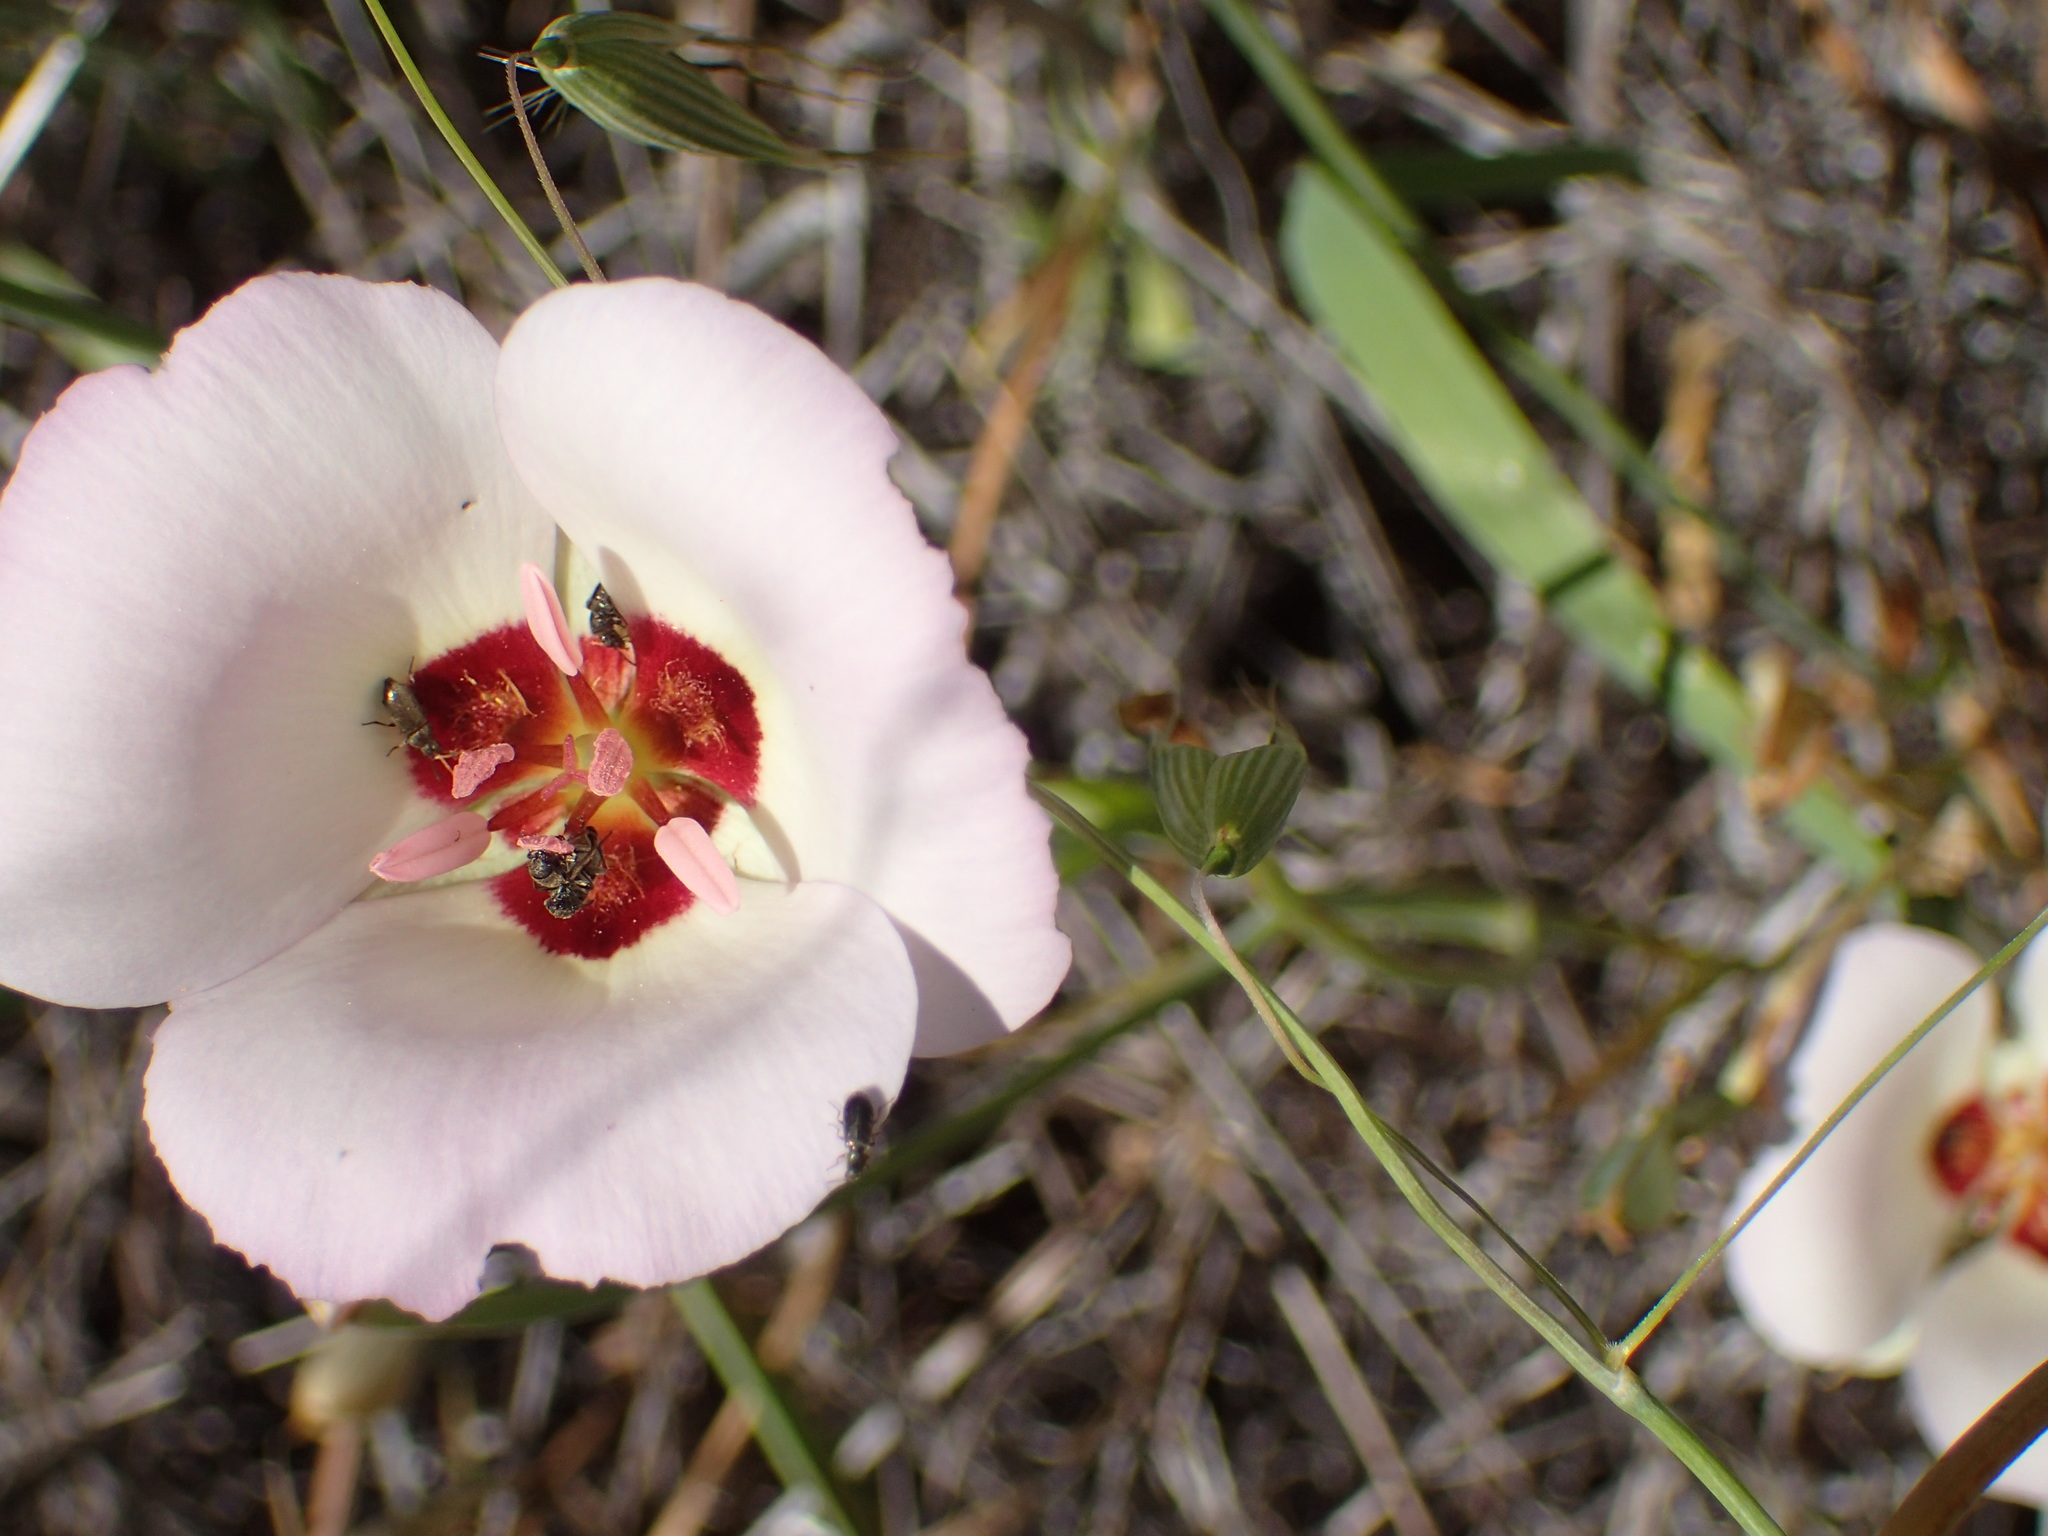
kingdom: Plantae
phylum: Tracheophyta
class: Liliopsida
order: Liliales
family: Liliaceae
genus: Calochortus
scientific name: Calochortus catalinae
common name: Catalina mariposa-lily
